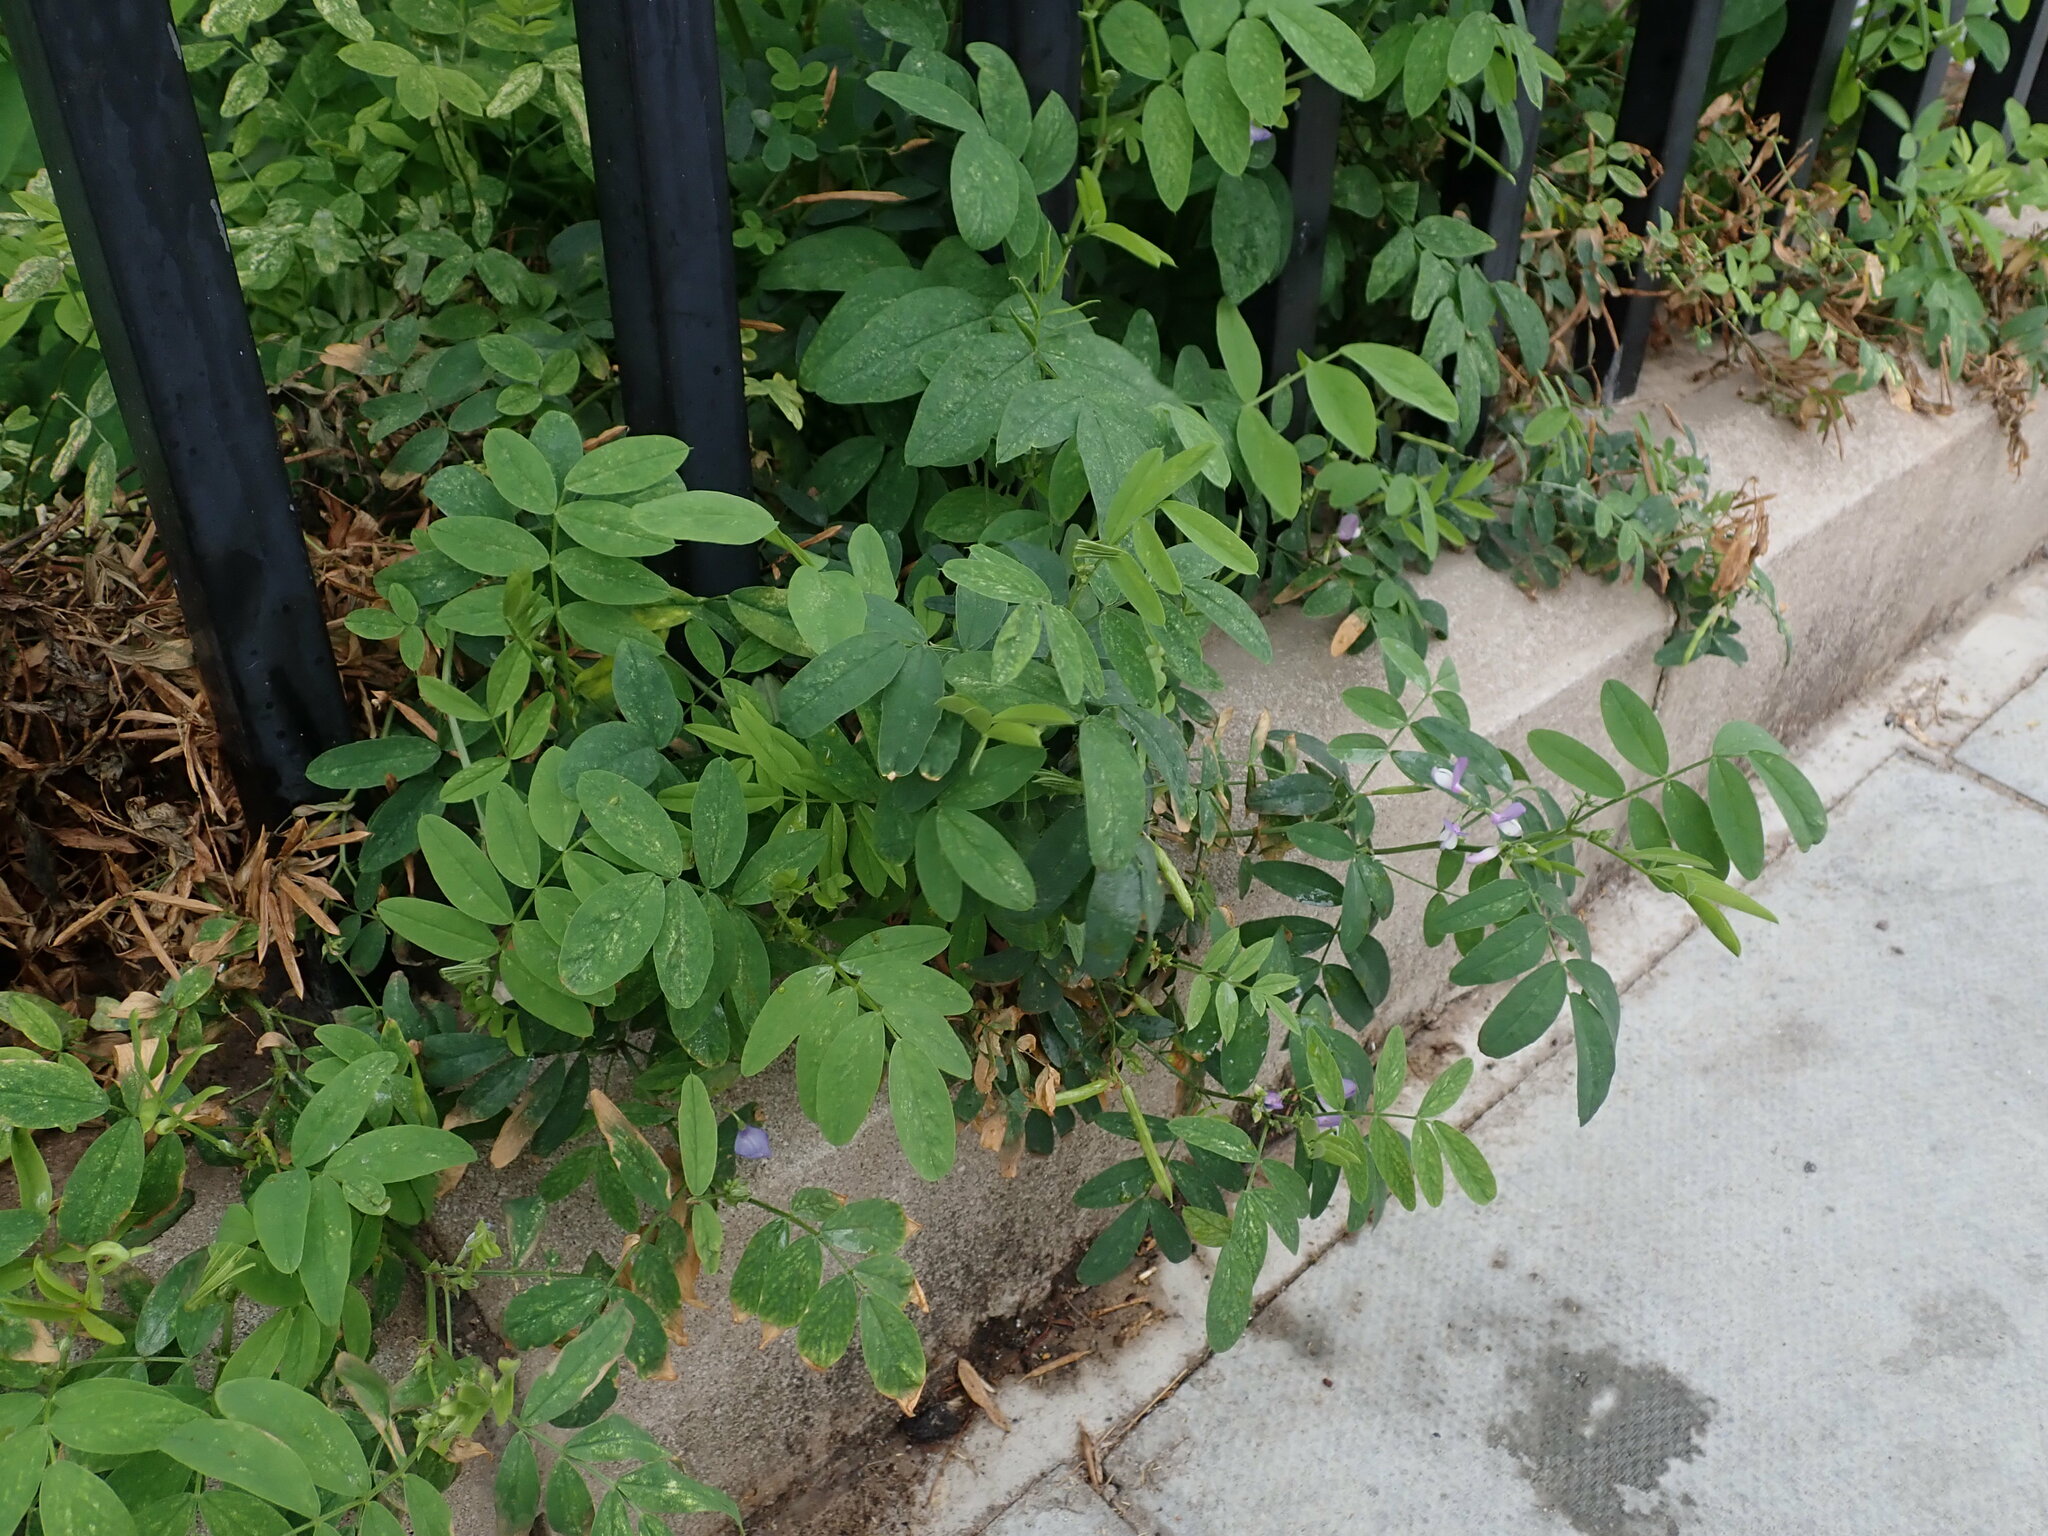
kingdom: Plantae
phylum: Tracheophyta
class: Magnoliopsida
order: Fabales
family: Fabaceae
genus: Galega
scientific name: Galega officinalis
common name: Goat's-rue
